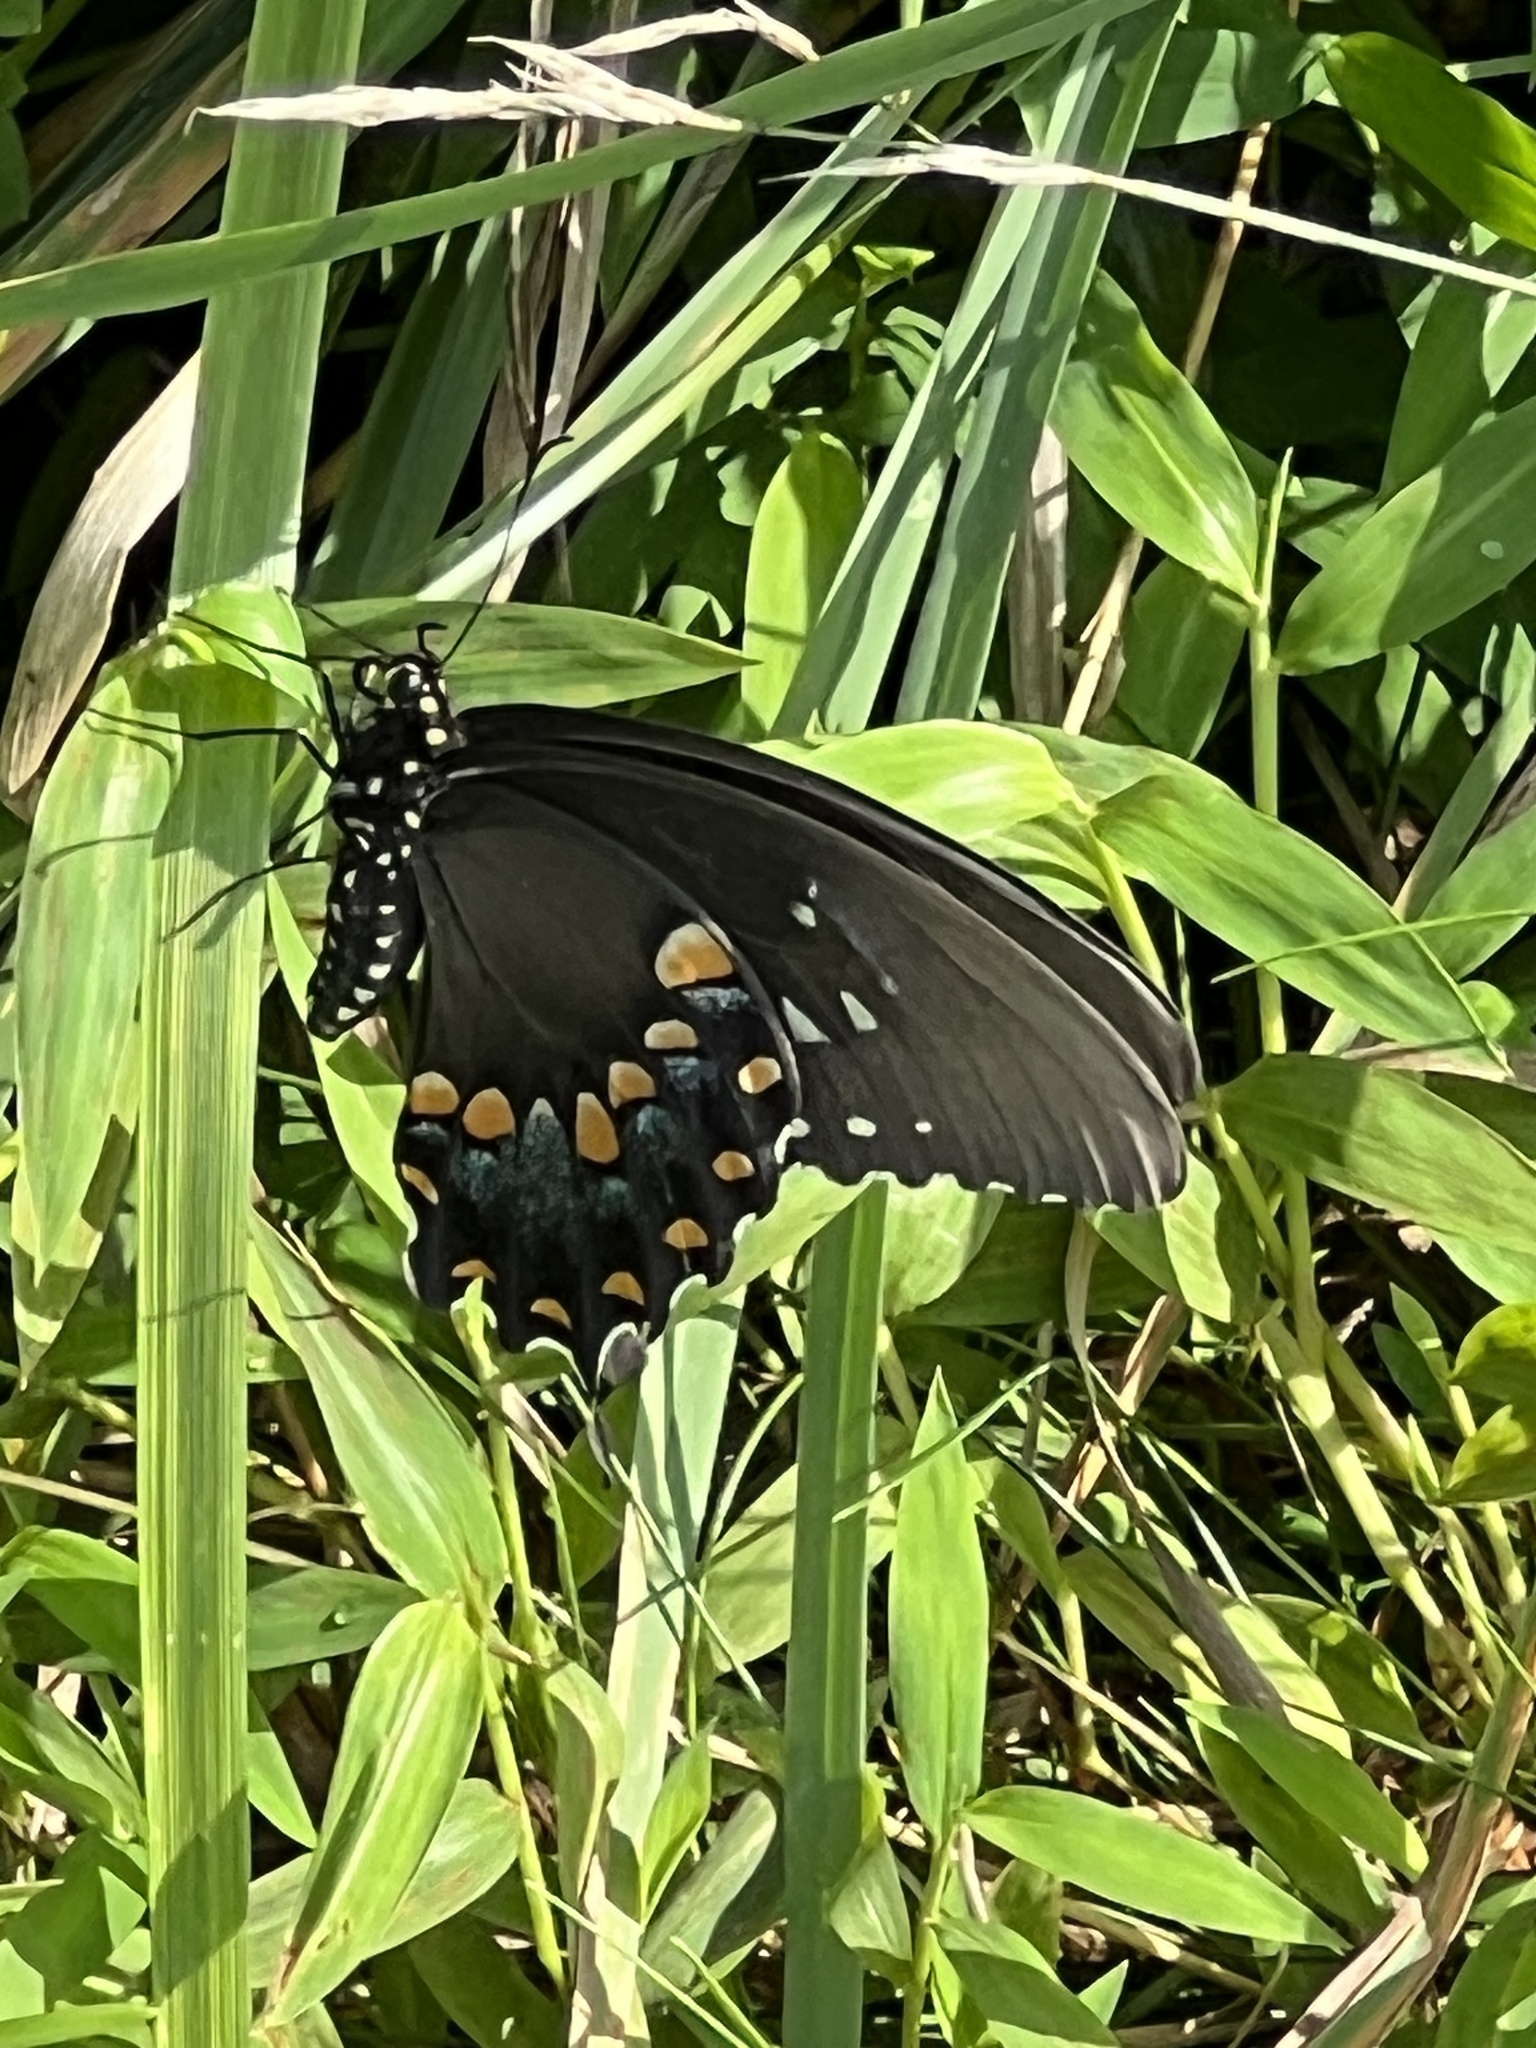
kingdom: Animalia
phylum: Arthropoda
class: Insecta
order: Lepidoptera
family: Papilionidae
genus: Papilio
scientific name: Papilio troilus
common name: Spicebush swallowtail
